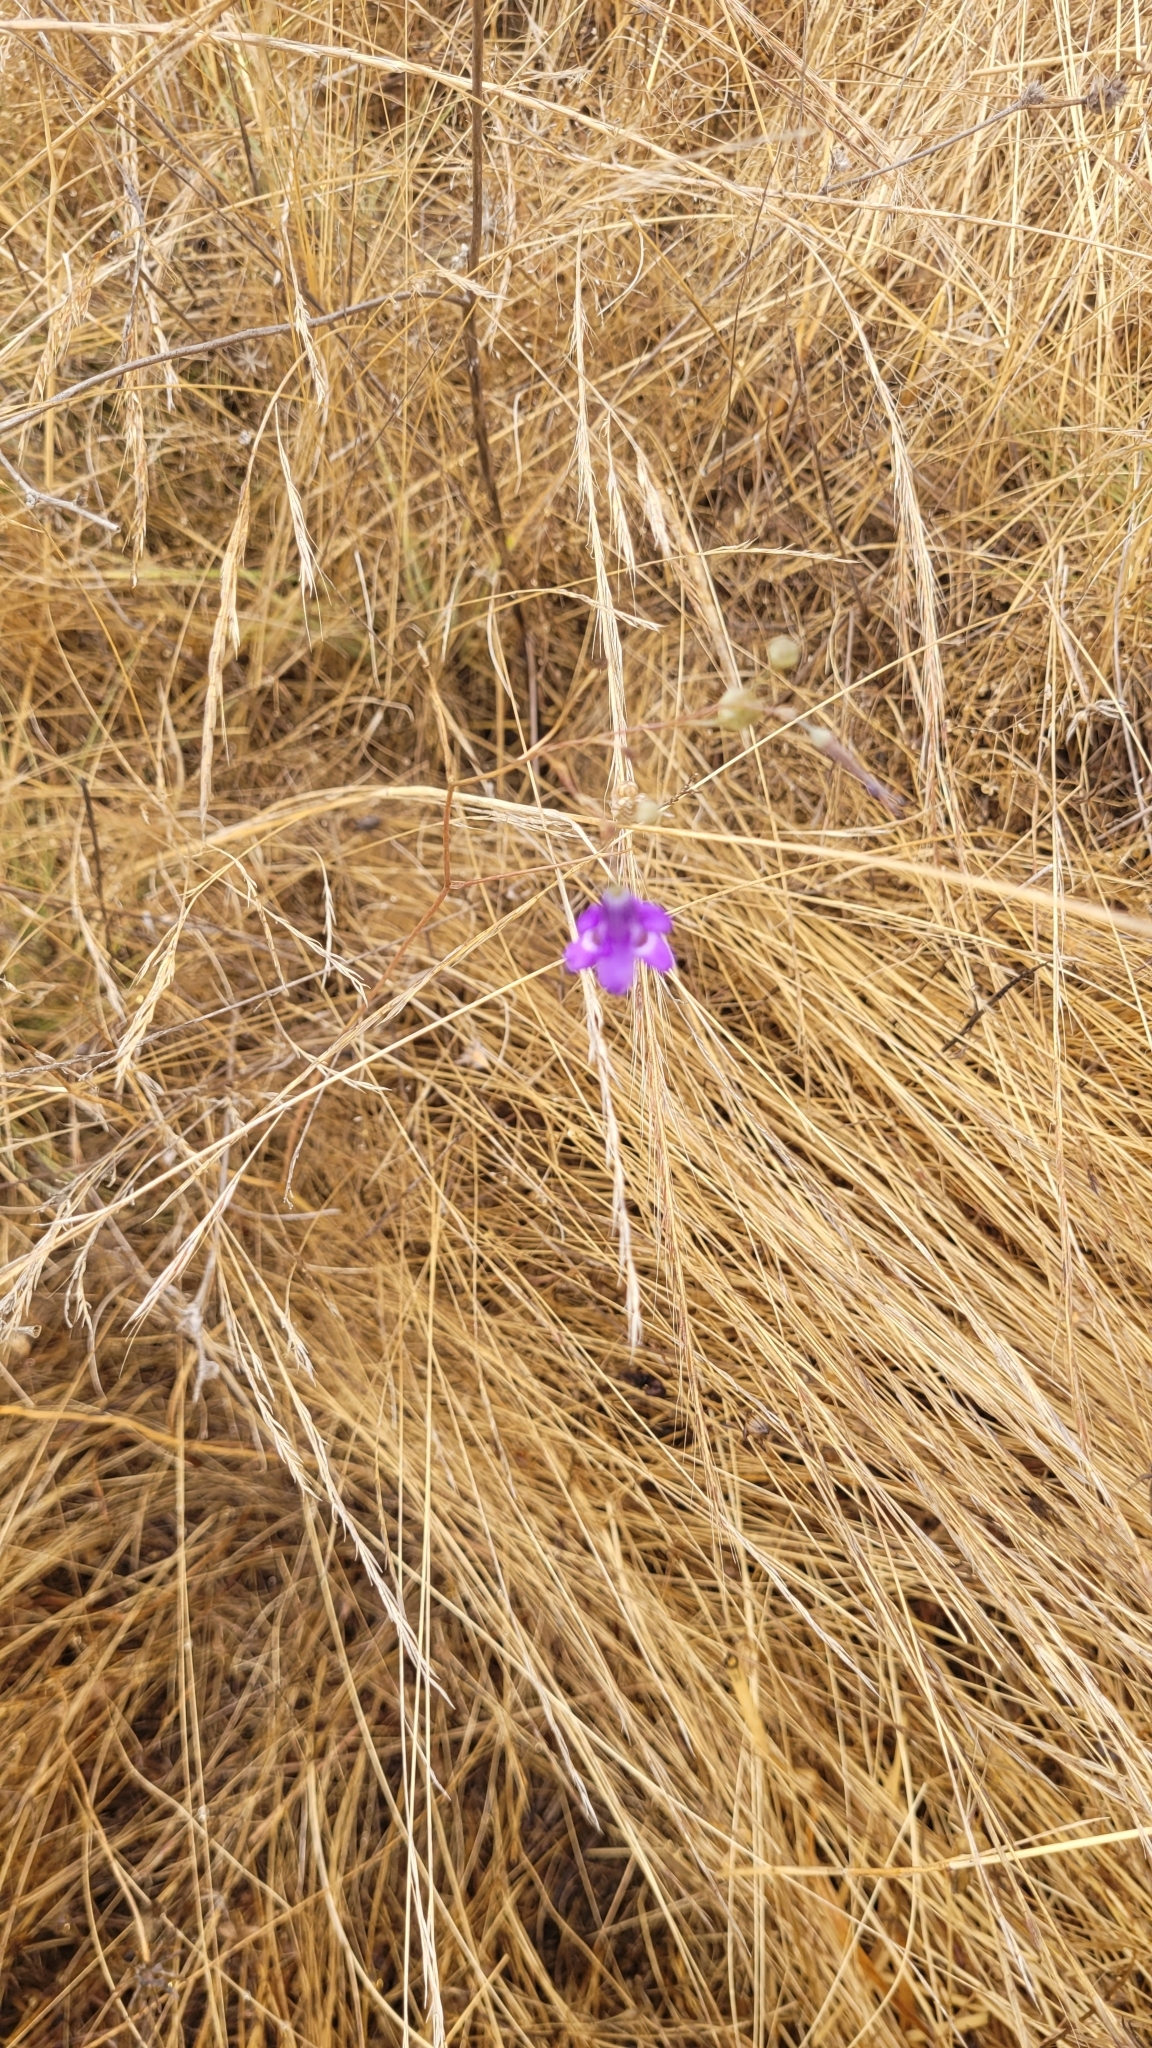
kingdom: Plantae
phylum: Tracheophyta
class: Liliopsida
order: Asparagales
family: Tecophilaeaceae
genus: Conanthera
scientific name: Conanthera trimaculata
